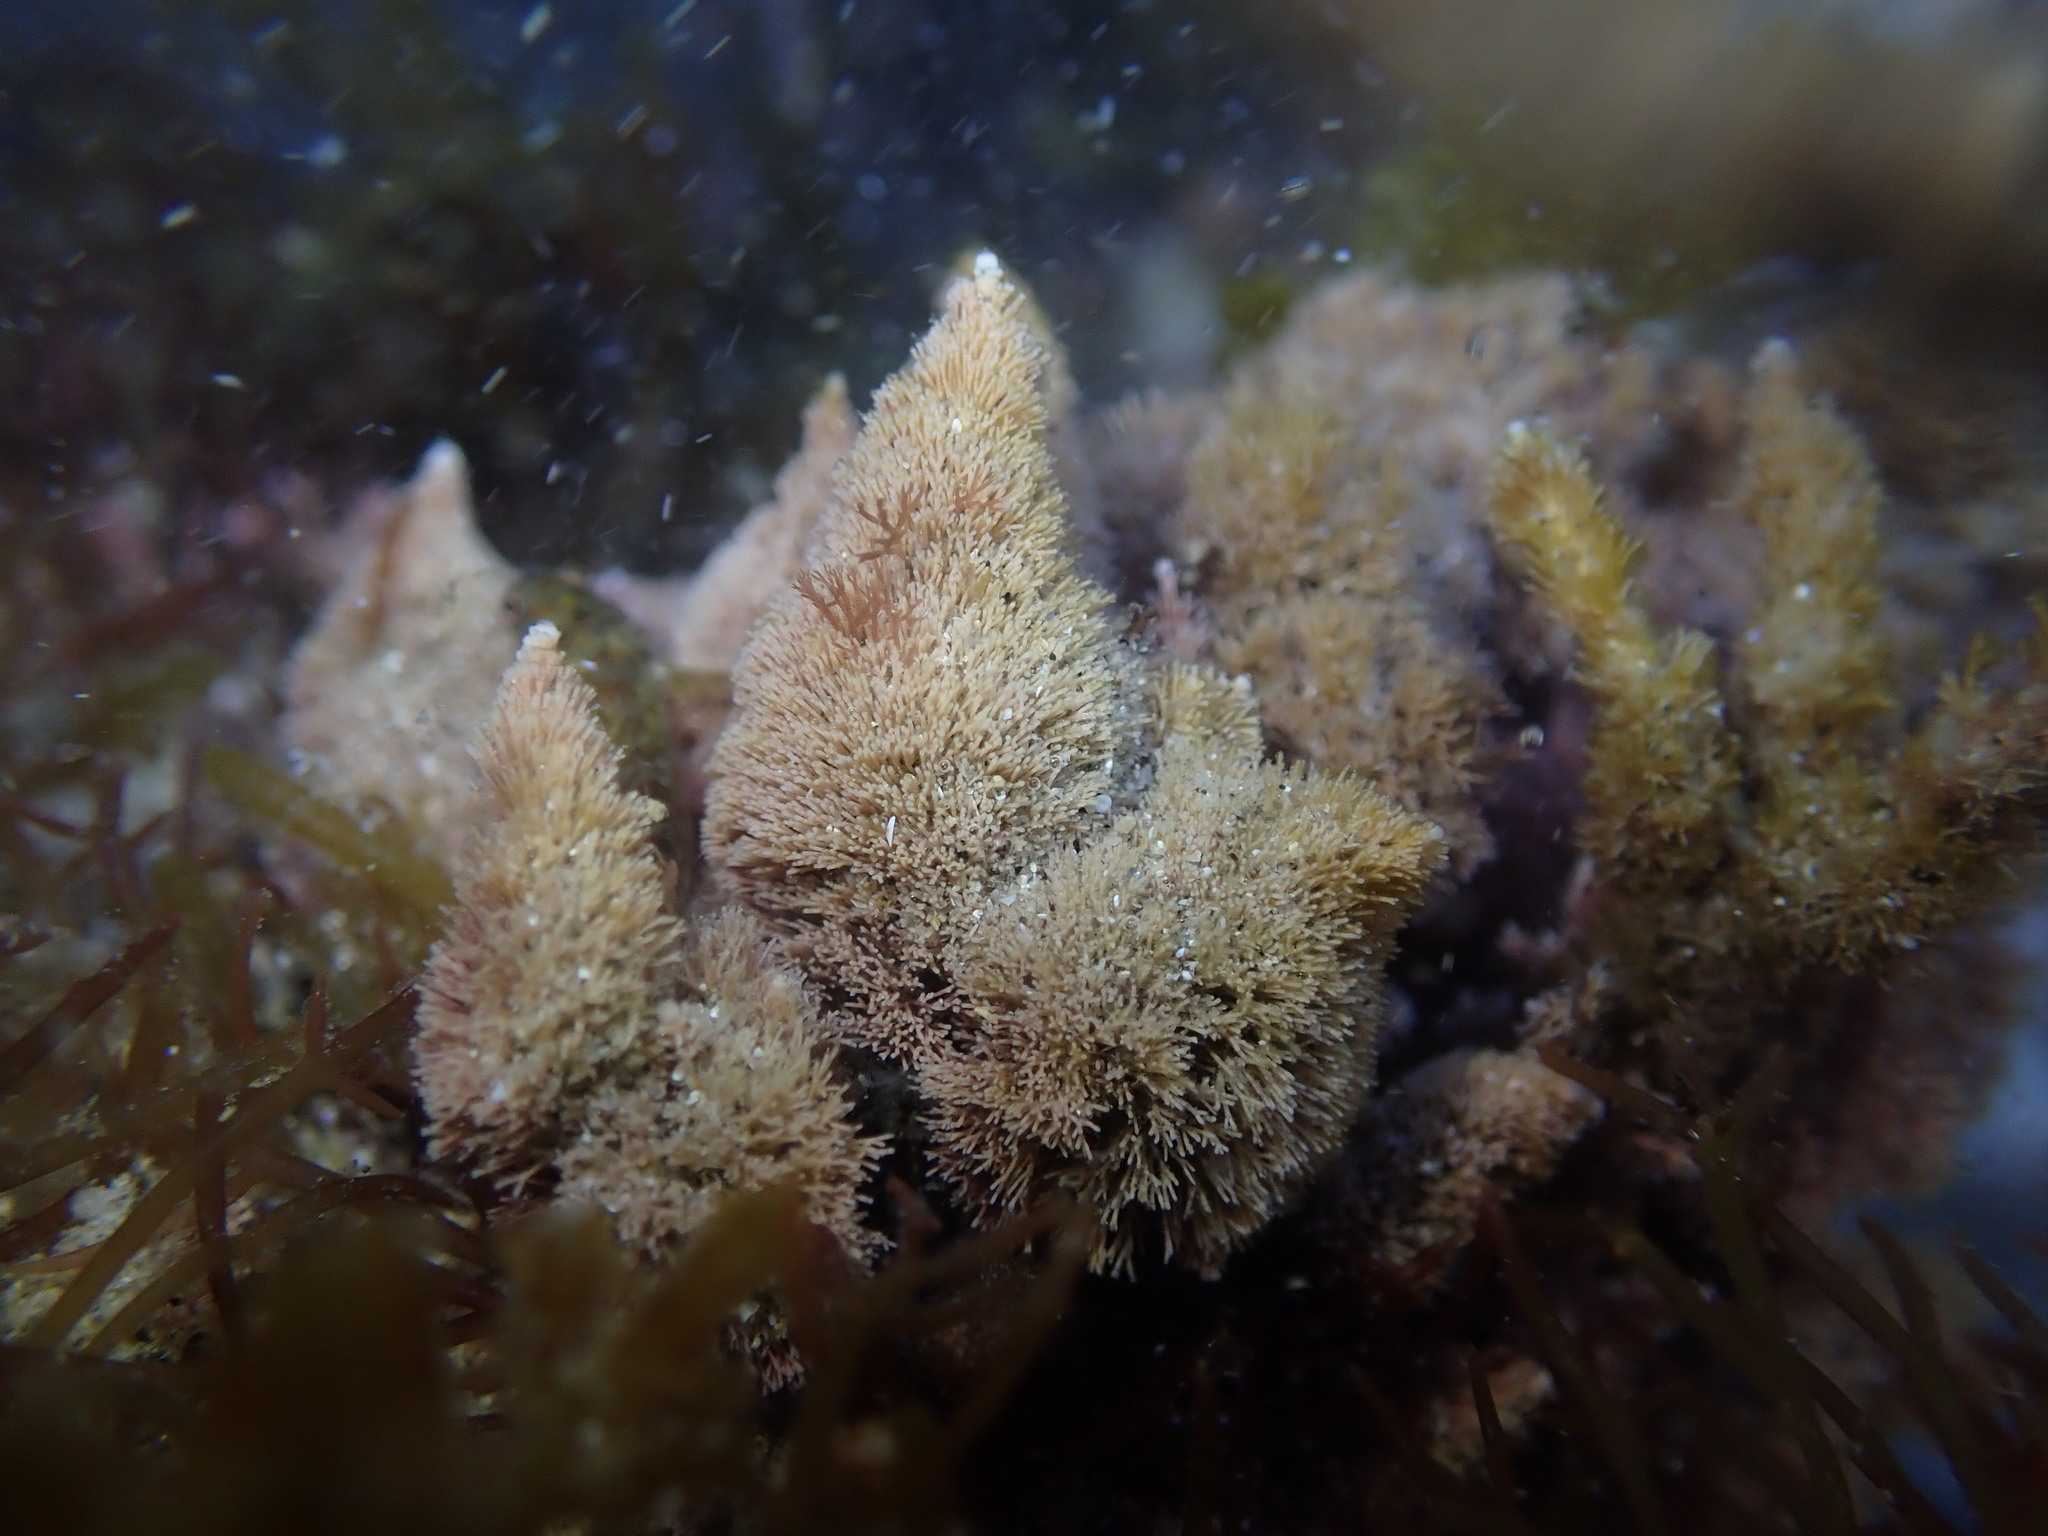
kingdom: Plantae
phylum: Rhodophyta
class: Florideophyceae
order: Corallinales
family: Corallinaceae
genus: Jania
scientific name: Jania rosea
